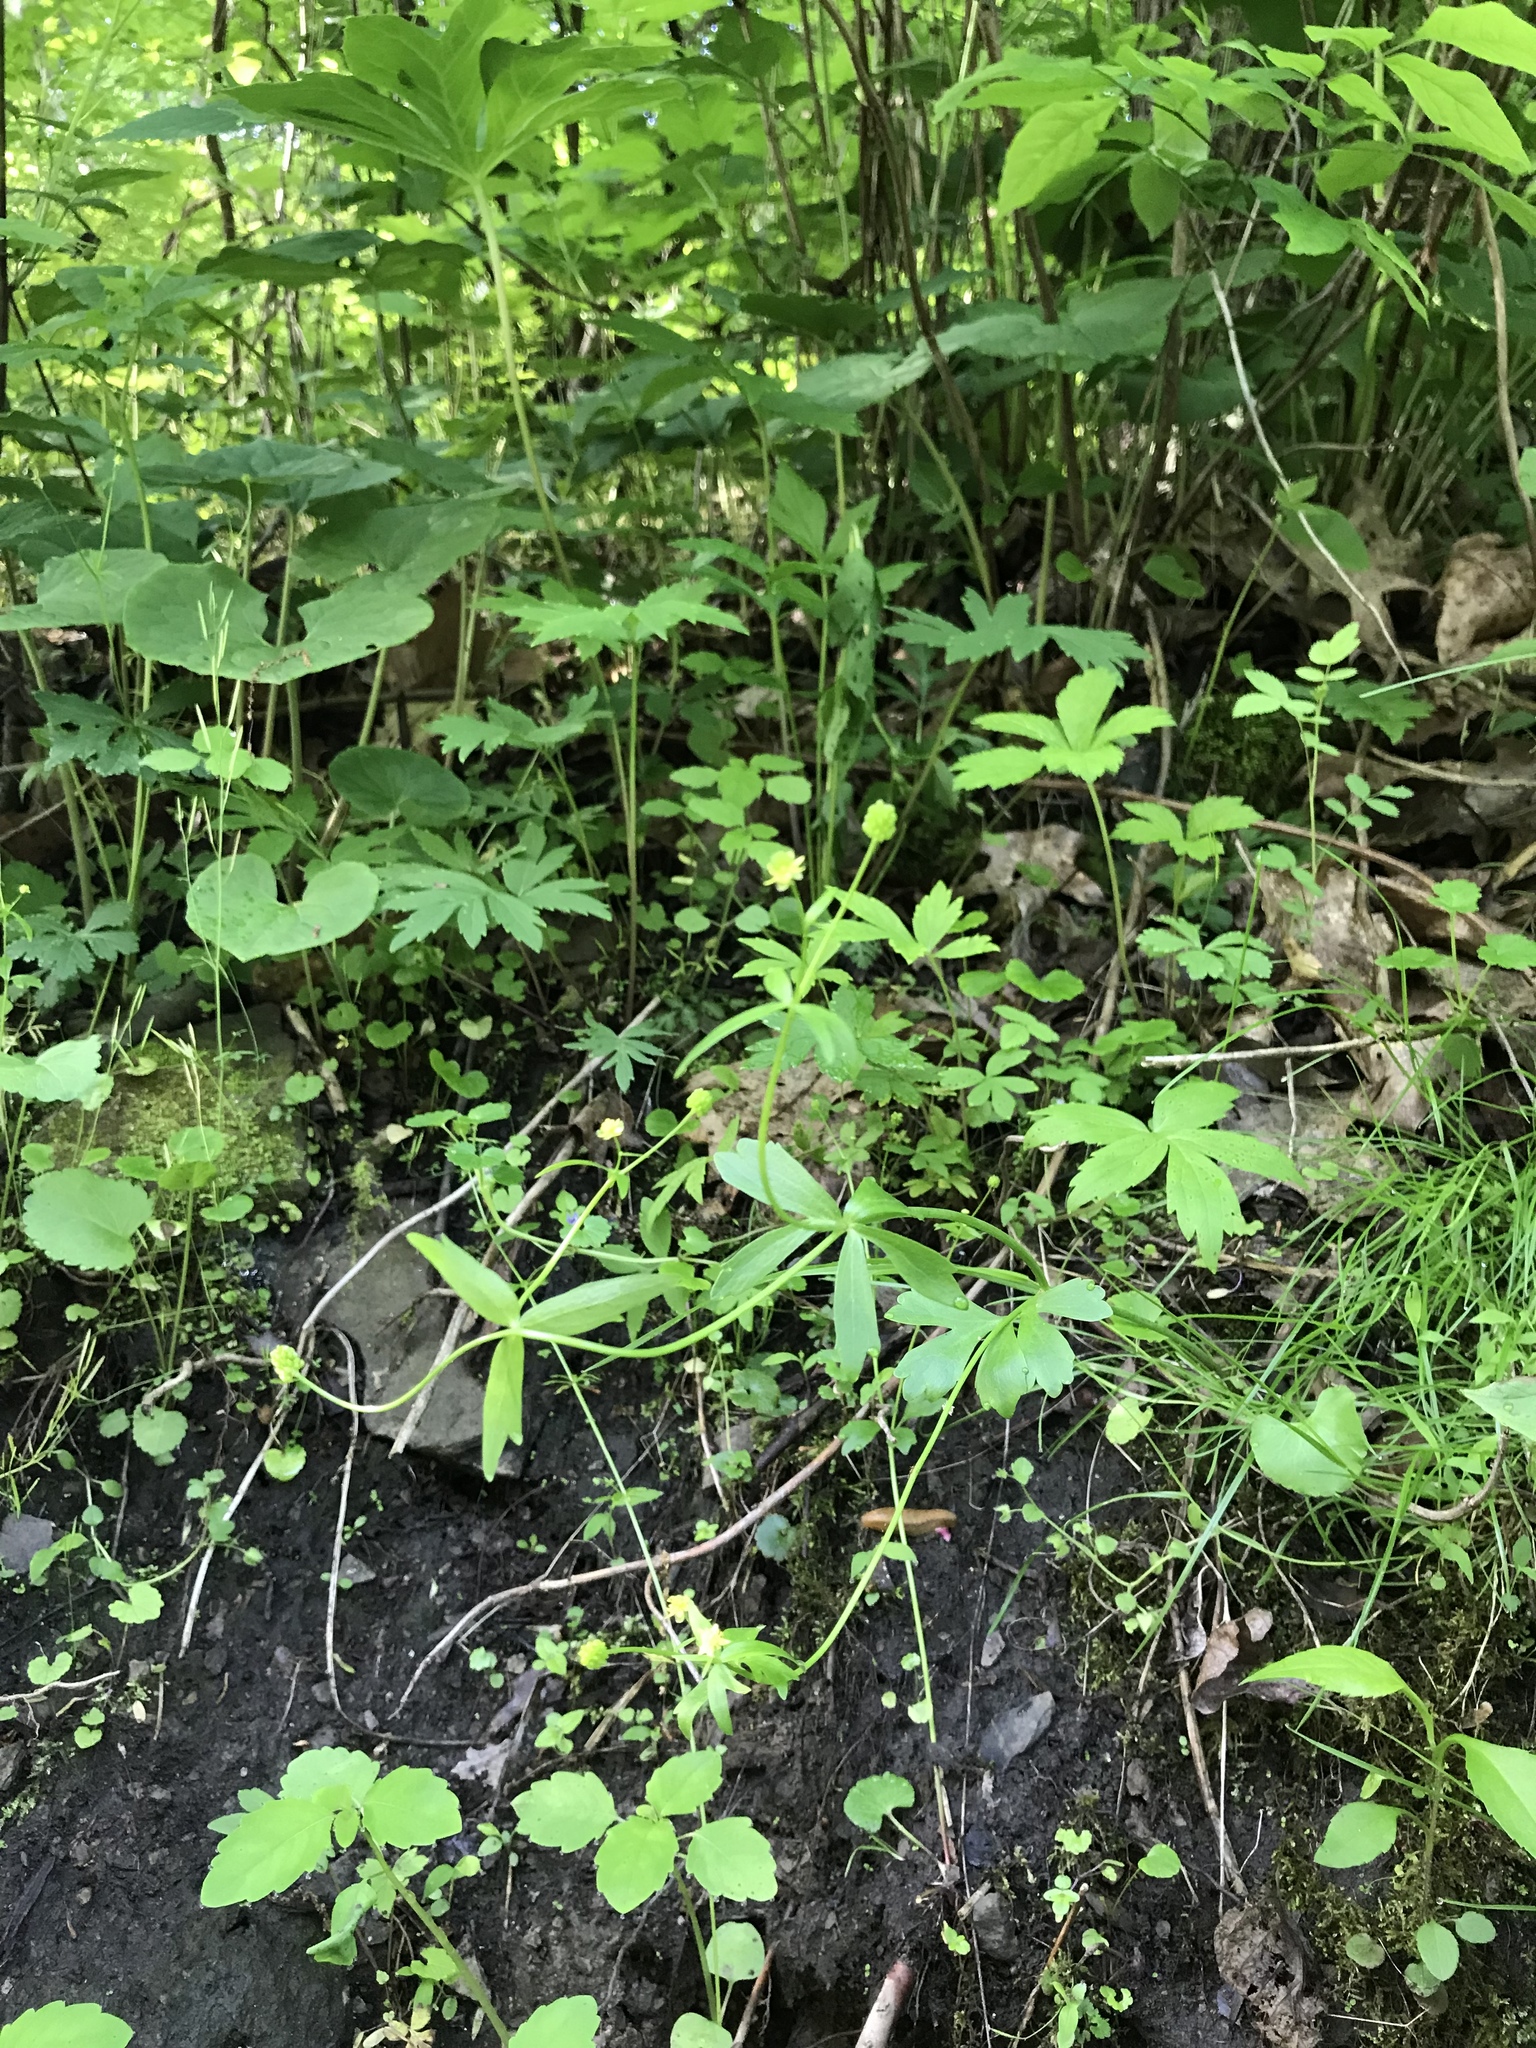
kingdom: Plantae
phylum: Tracheophyta
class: Magnoliopsida
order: Ranunculales
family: Ranunculaceae
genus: Ranunculus
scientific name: Ranunculus abortivus
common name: Early wood buttercup
